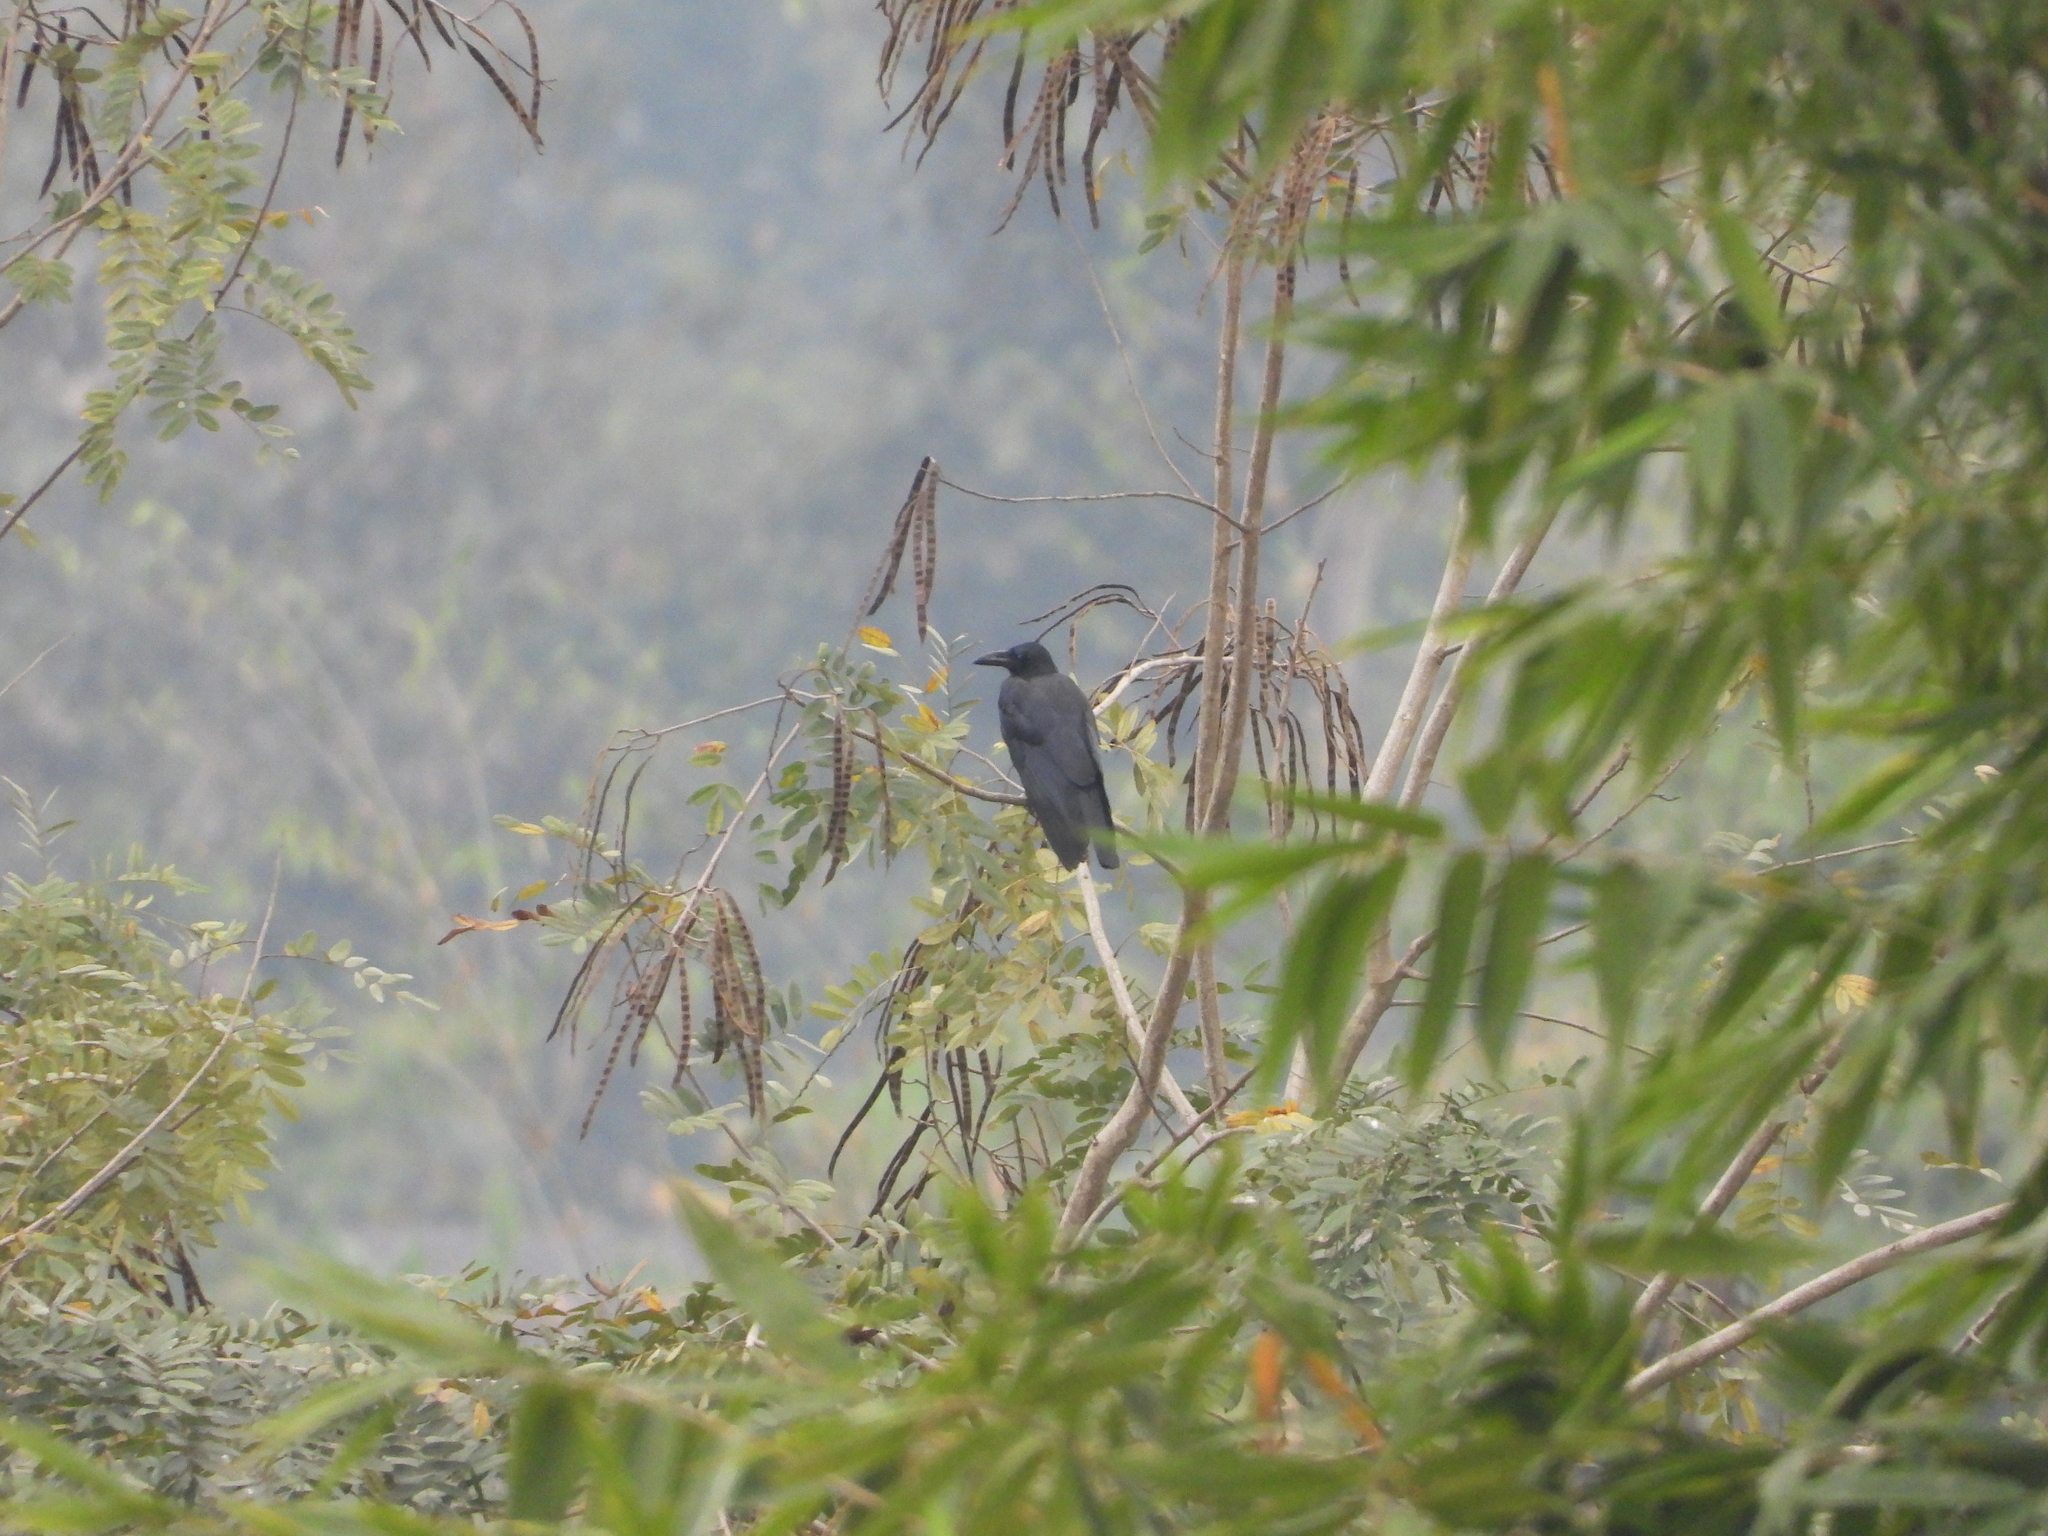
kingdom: Animalia
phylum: Chordata
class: Aves
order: Passeriformes
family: Corvidae
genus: Corvus
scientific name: Corvus macrorhynchos
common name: Large-billed crow
